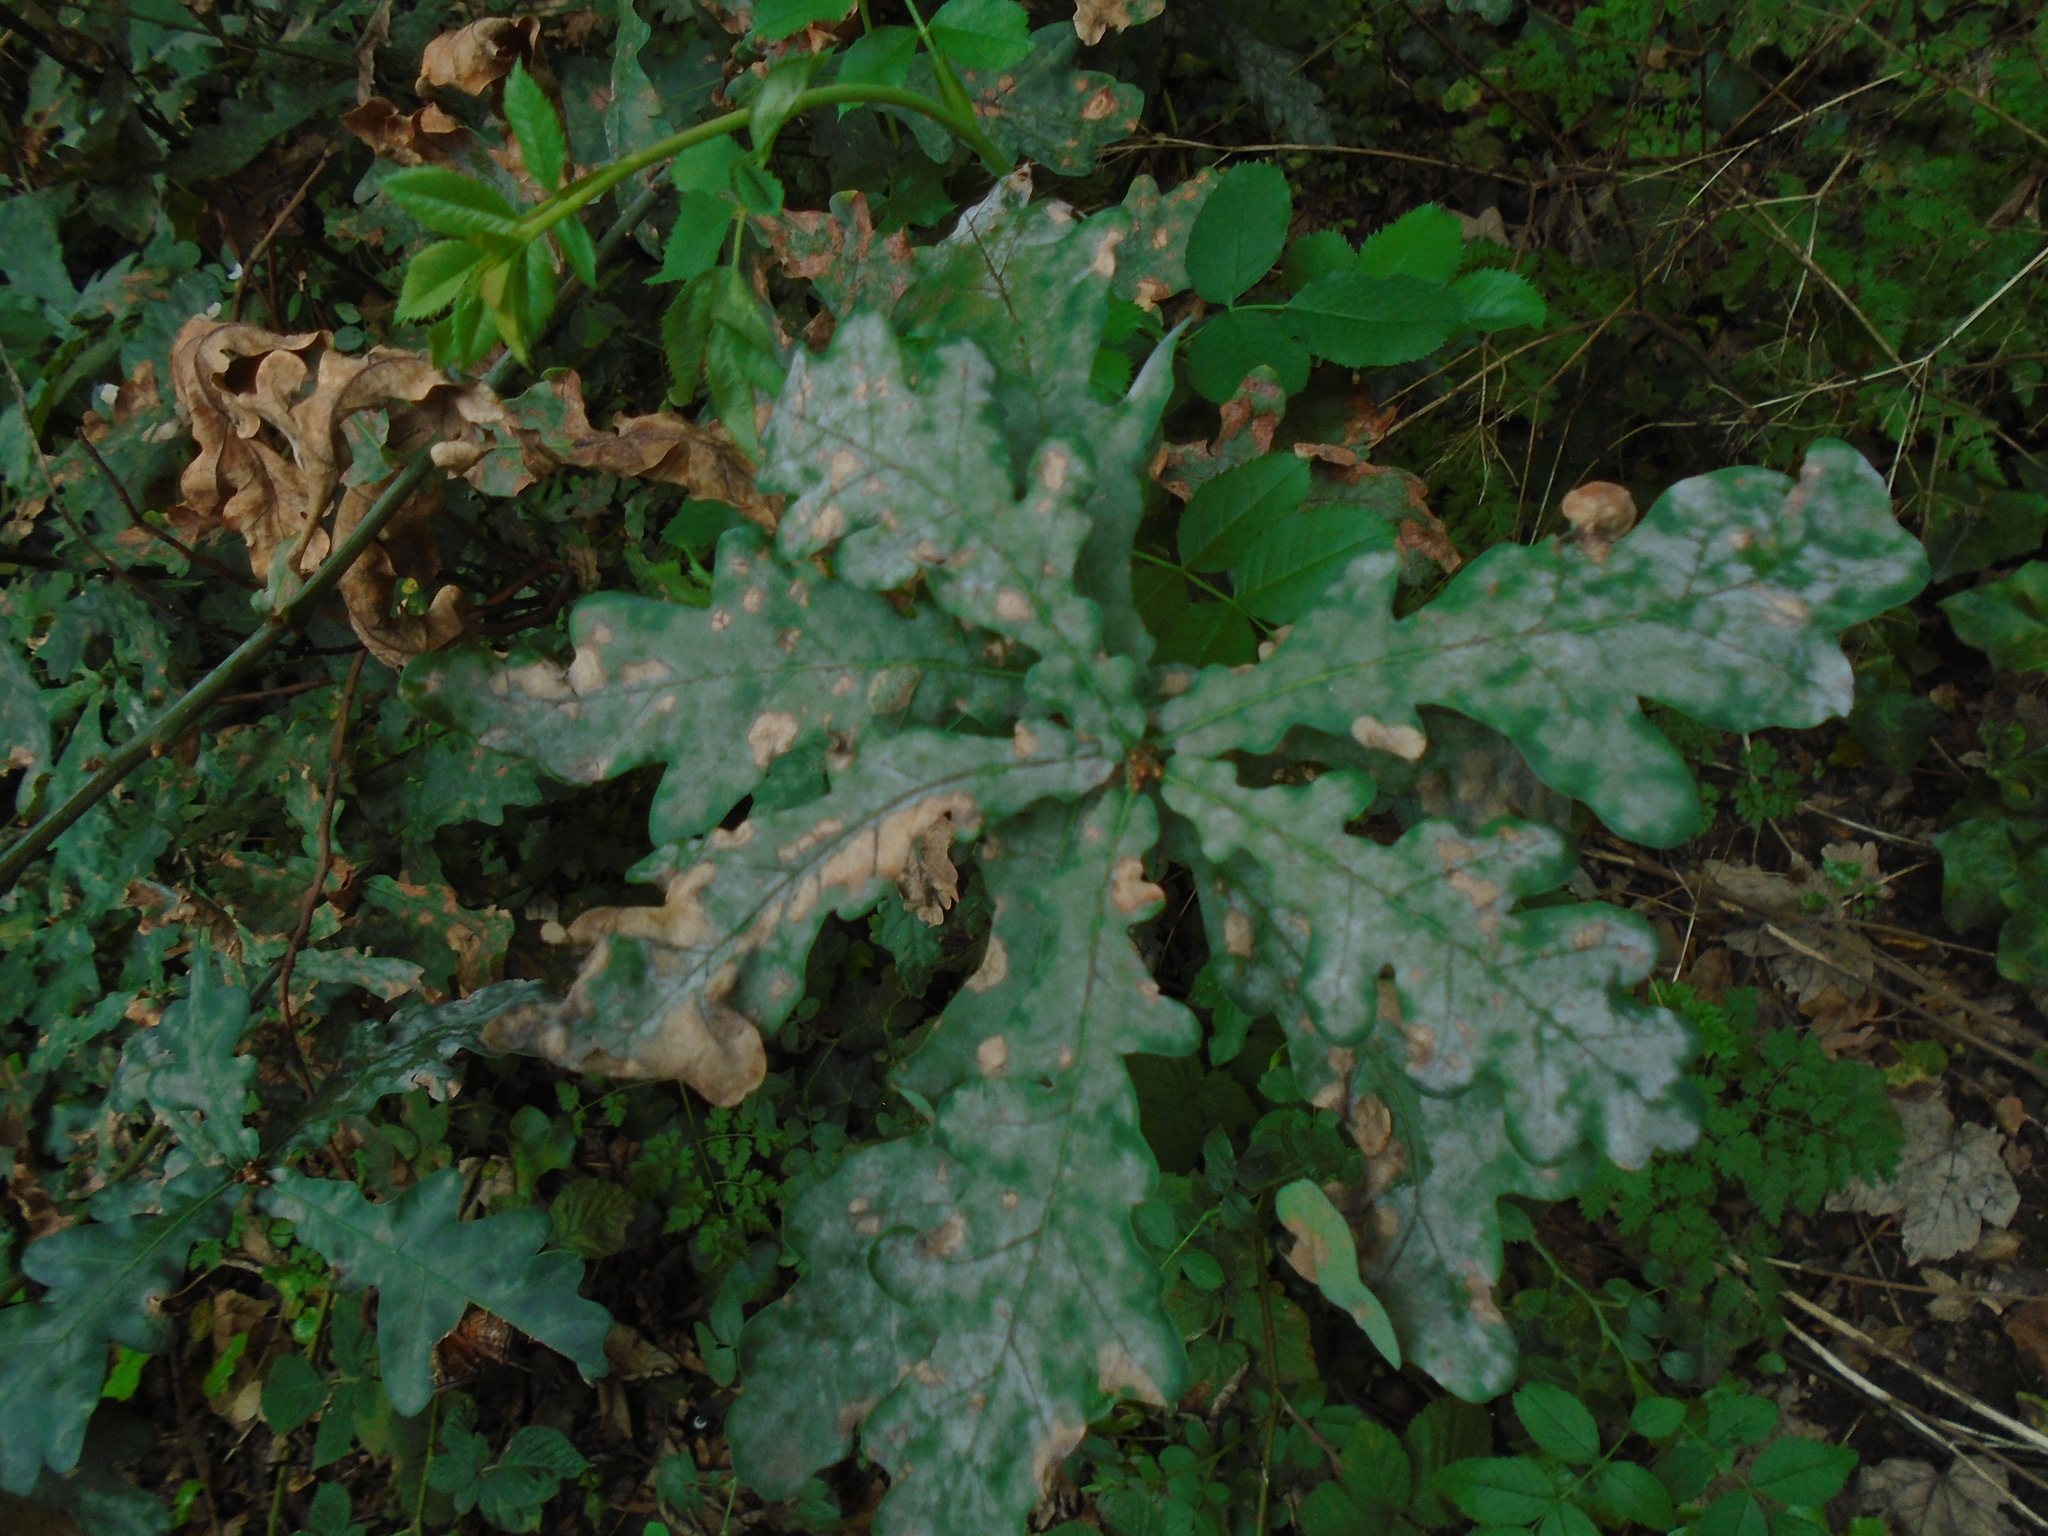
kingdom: Fungi
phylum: Ascomycota
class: Leotiomycetes
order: Helotiales
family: Erysiphaceae
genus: Erysiphe
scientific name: Erysiphe alphitoides
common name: Oak mildew
